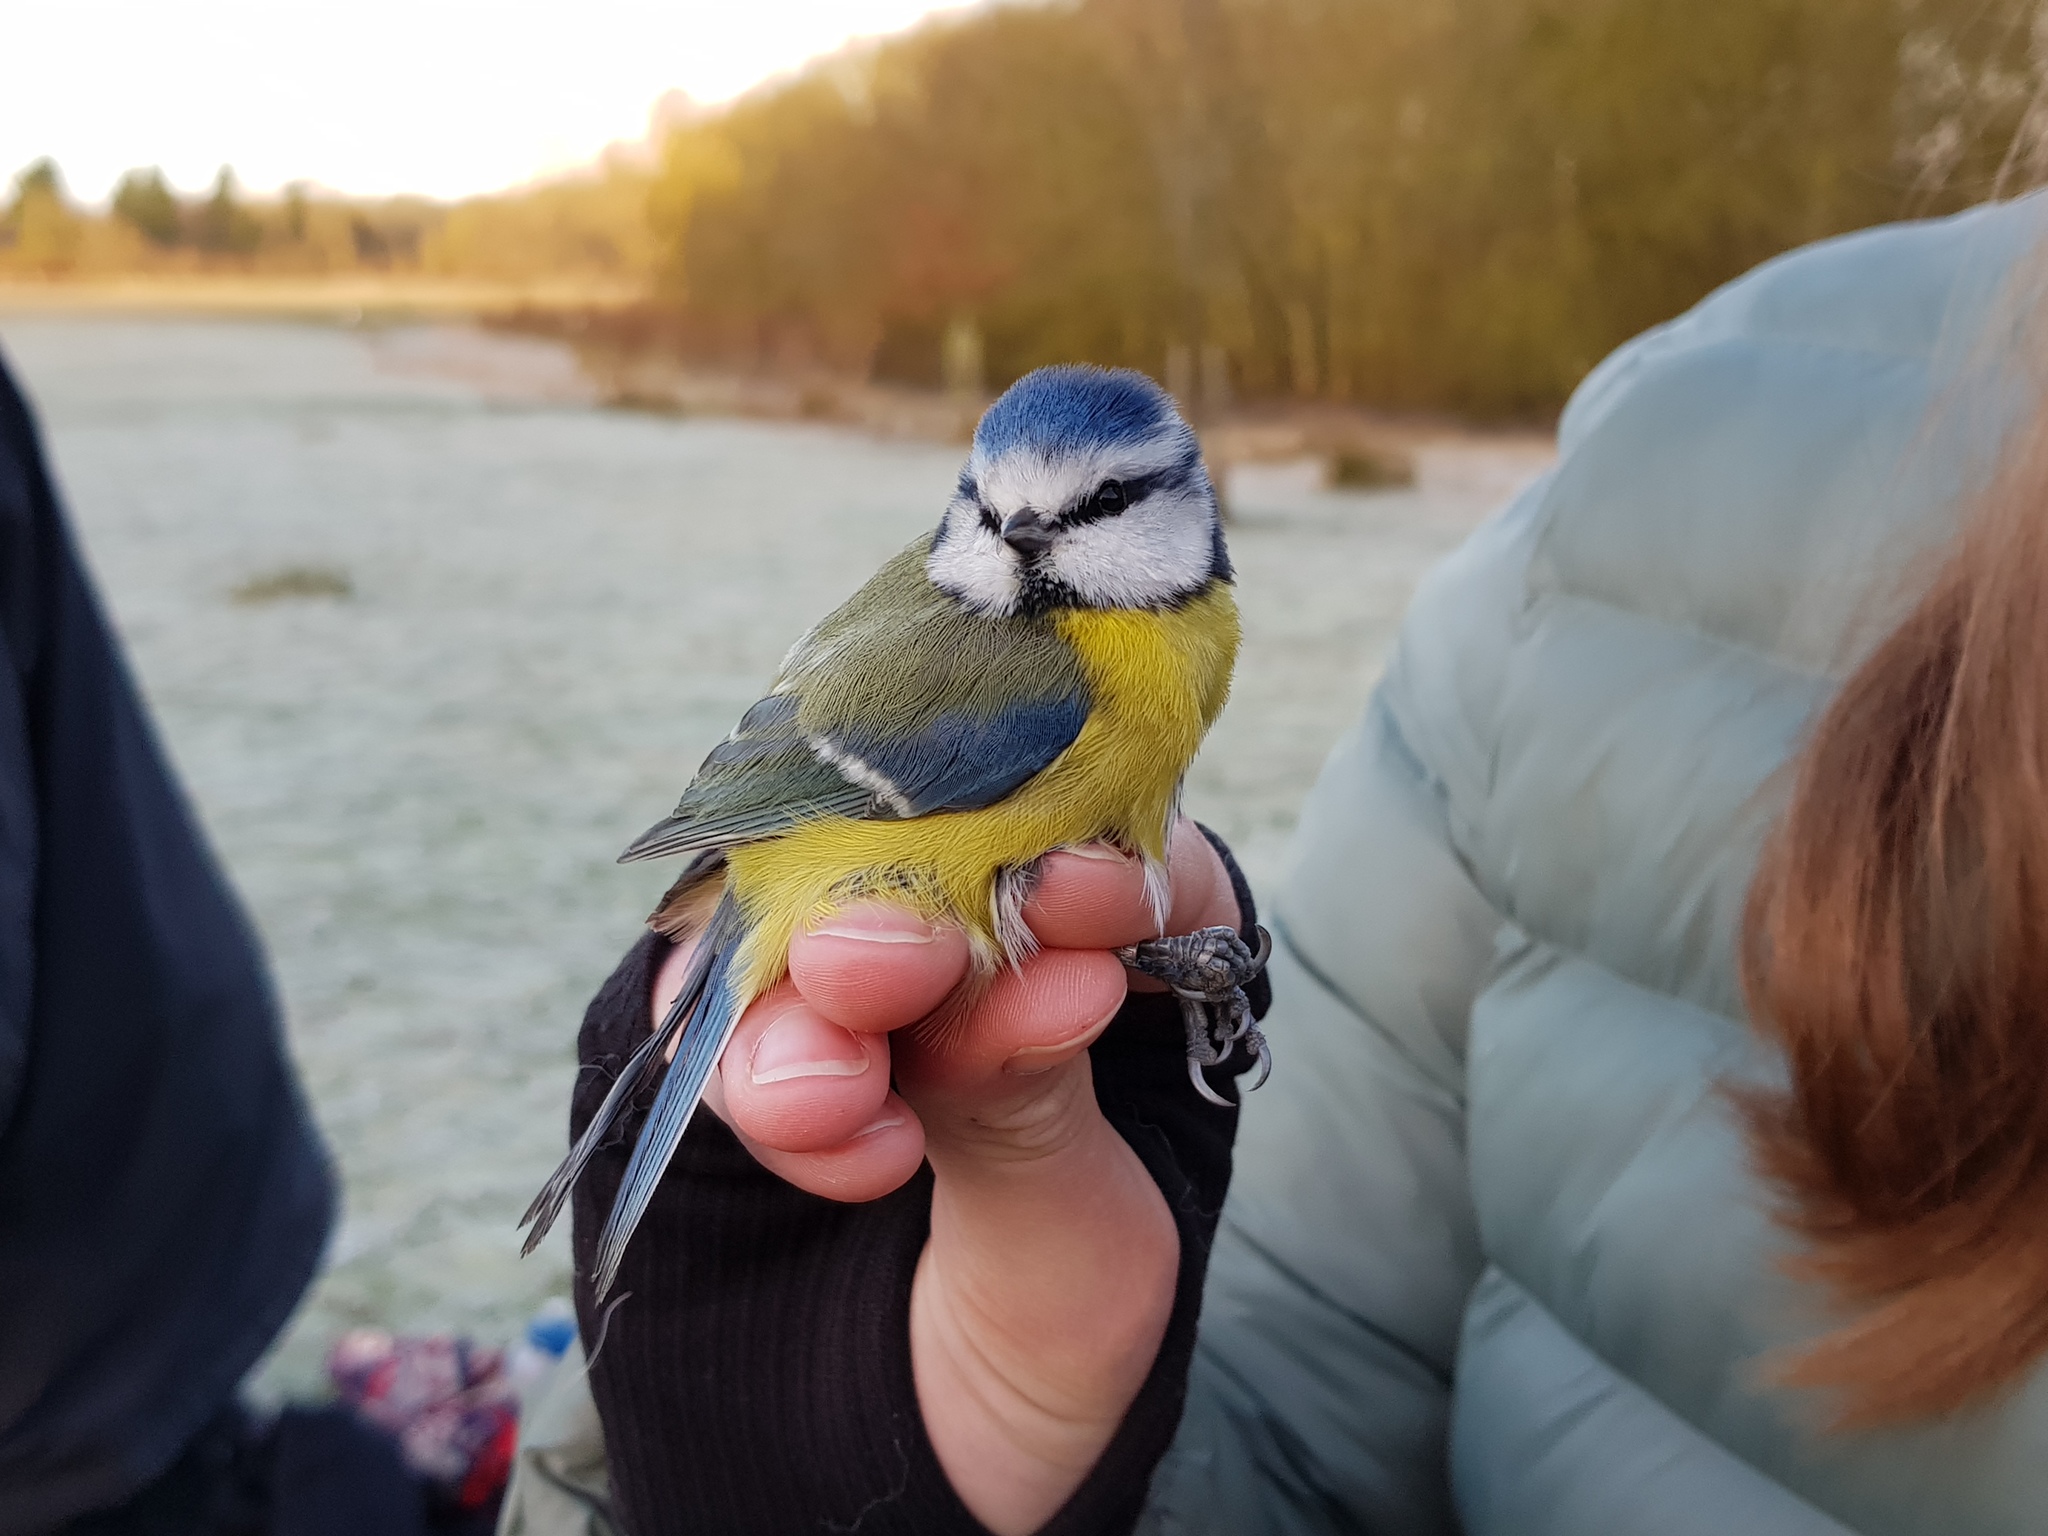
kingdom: Animalia
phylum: Chordata
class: Aves
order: Passeriformes
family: Paridae
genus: Cyanistes
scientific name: Cyanistes caeruleus
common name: Eurasian blue tit
